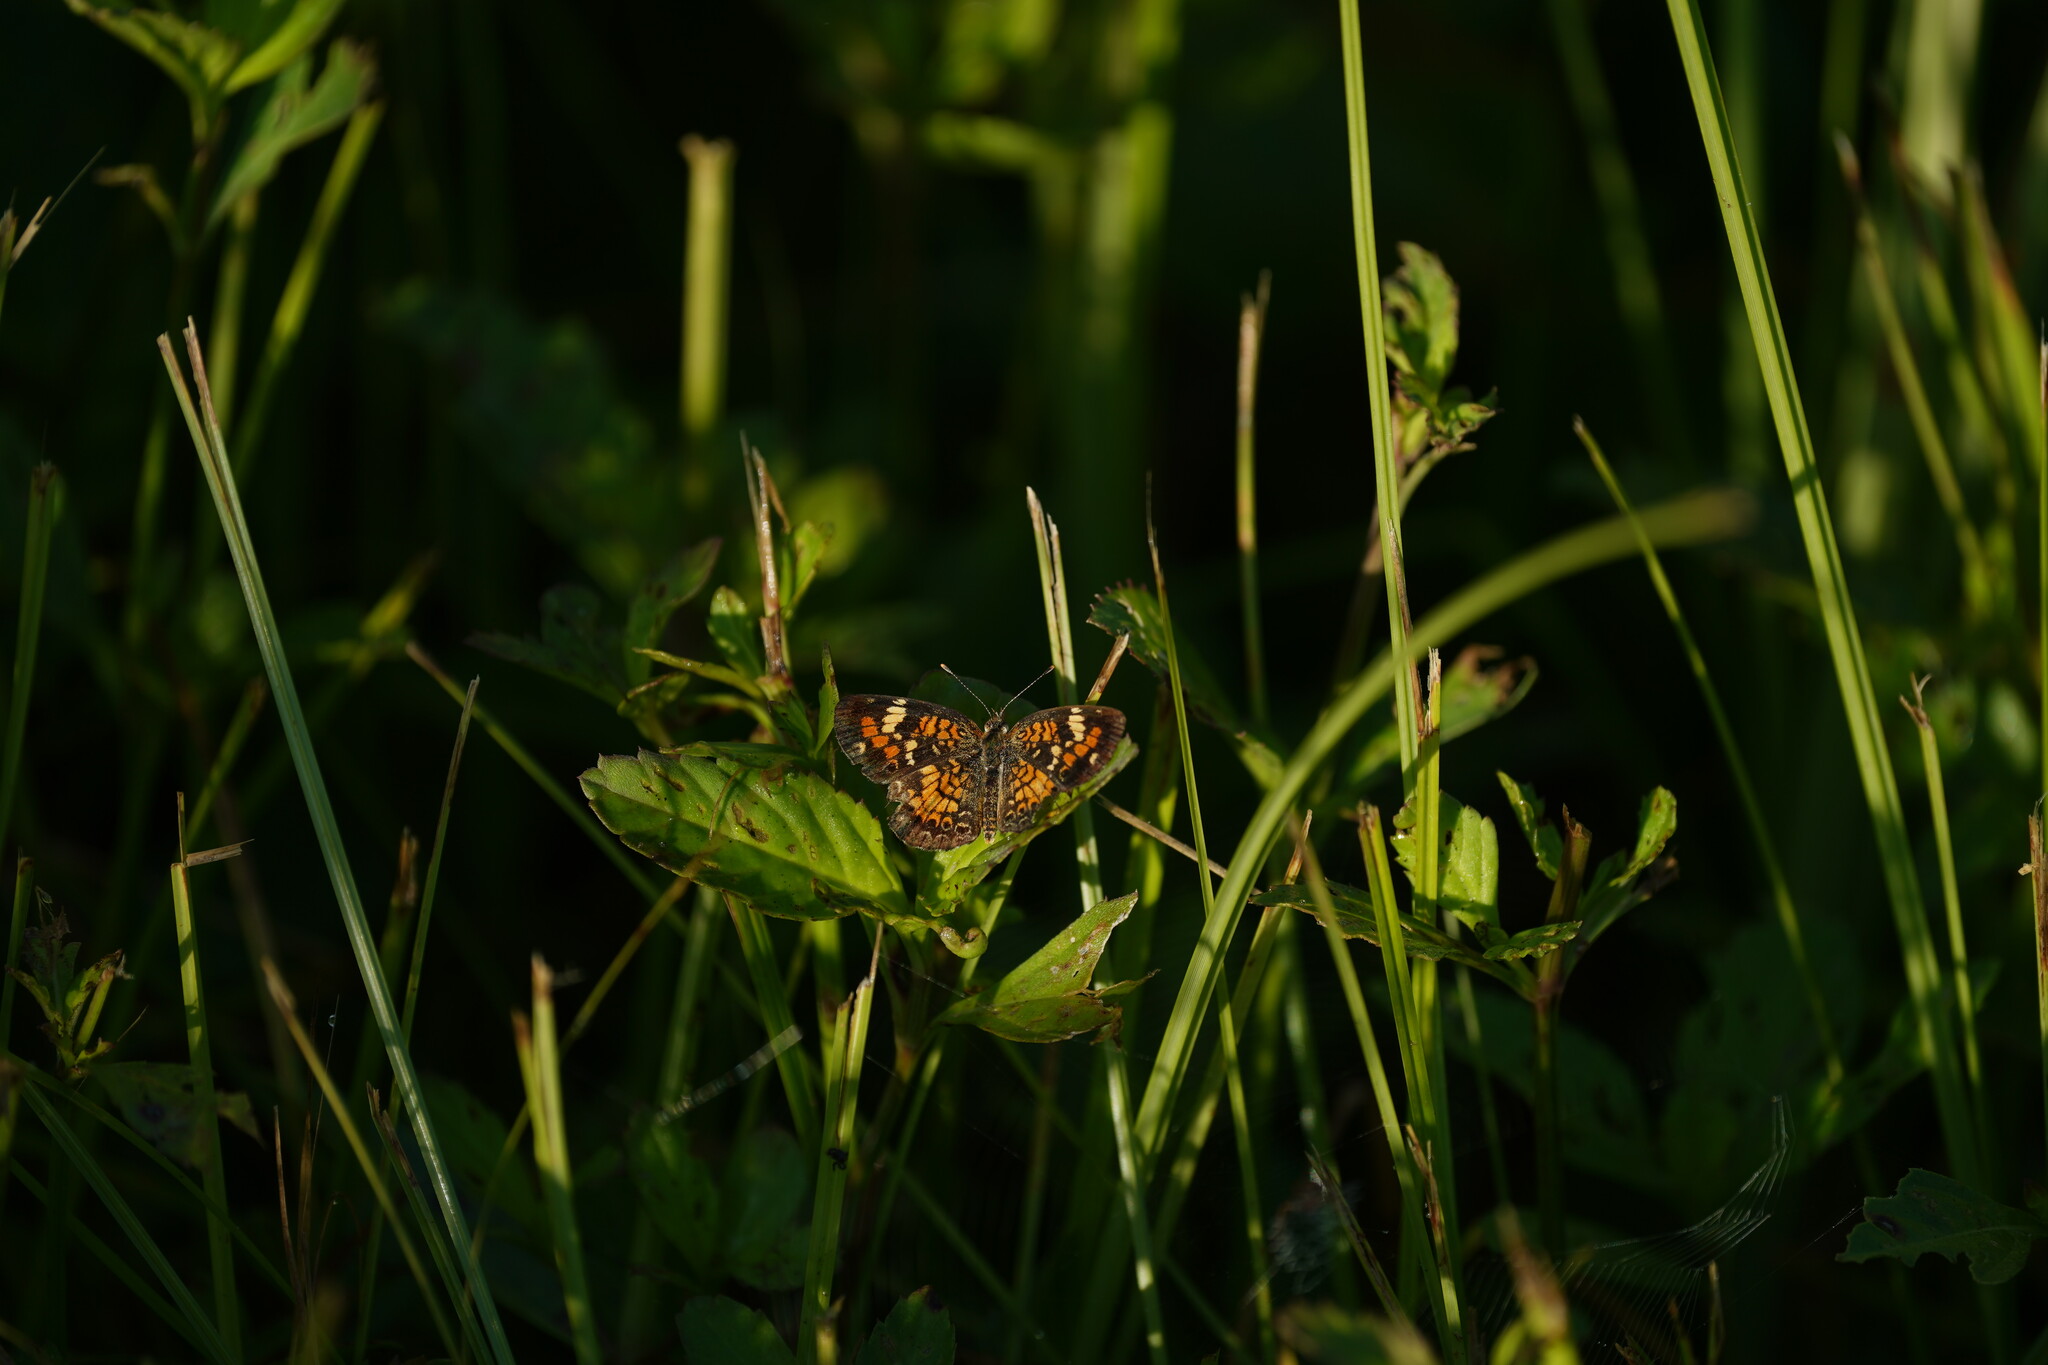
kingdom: Animalia
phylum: Arthropoda
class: Insecta
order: Lepidoptera
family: Nymphalidae
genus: Phyciodes
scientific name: Phyciodes phaon
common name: Phaon crescent
